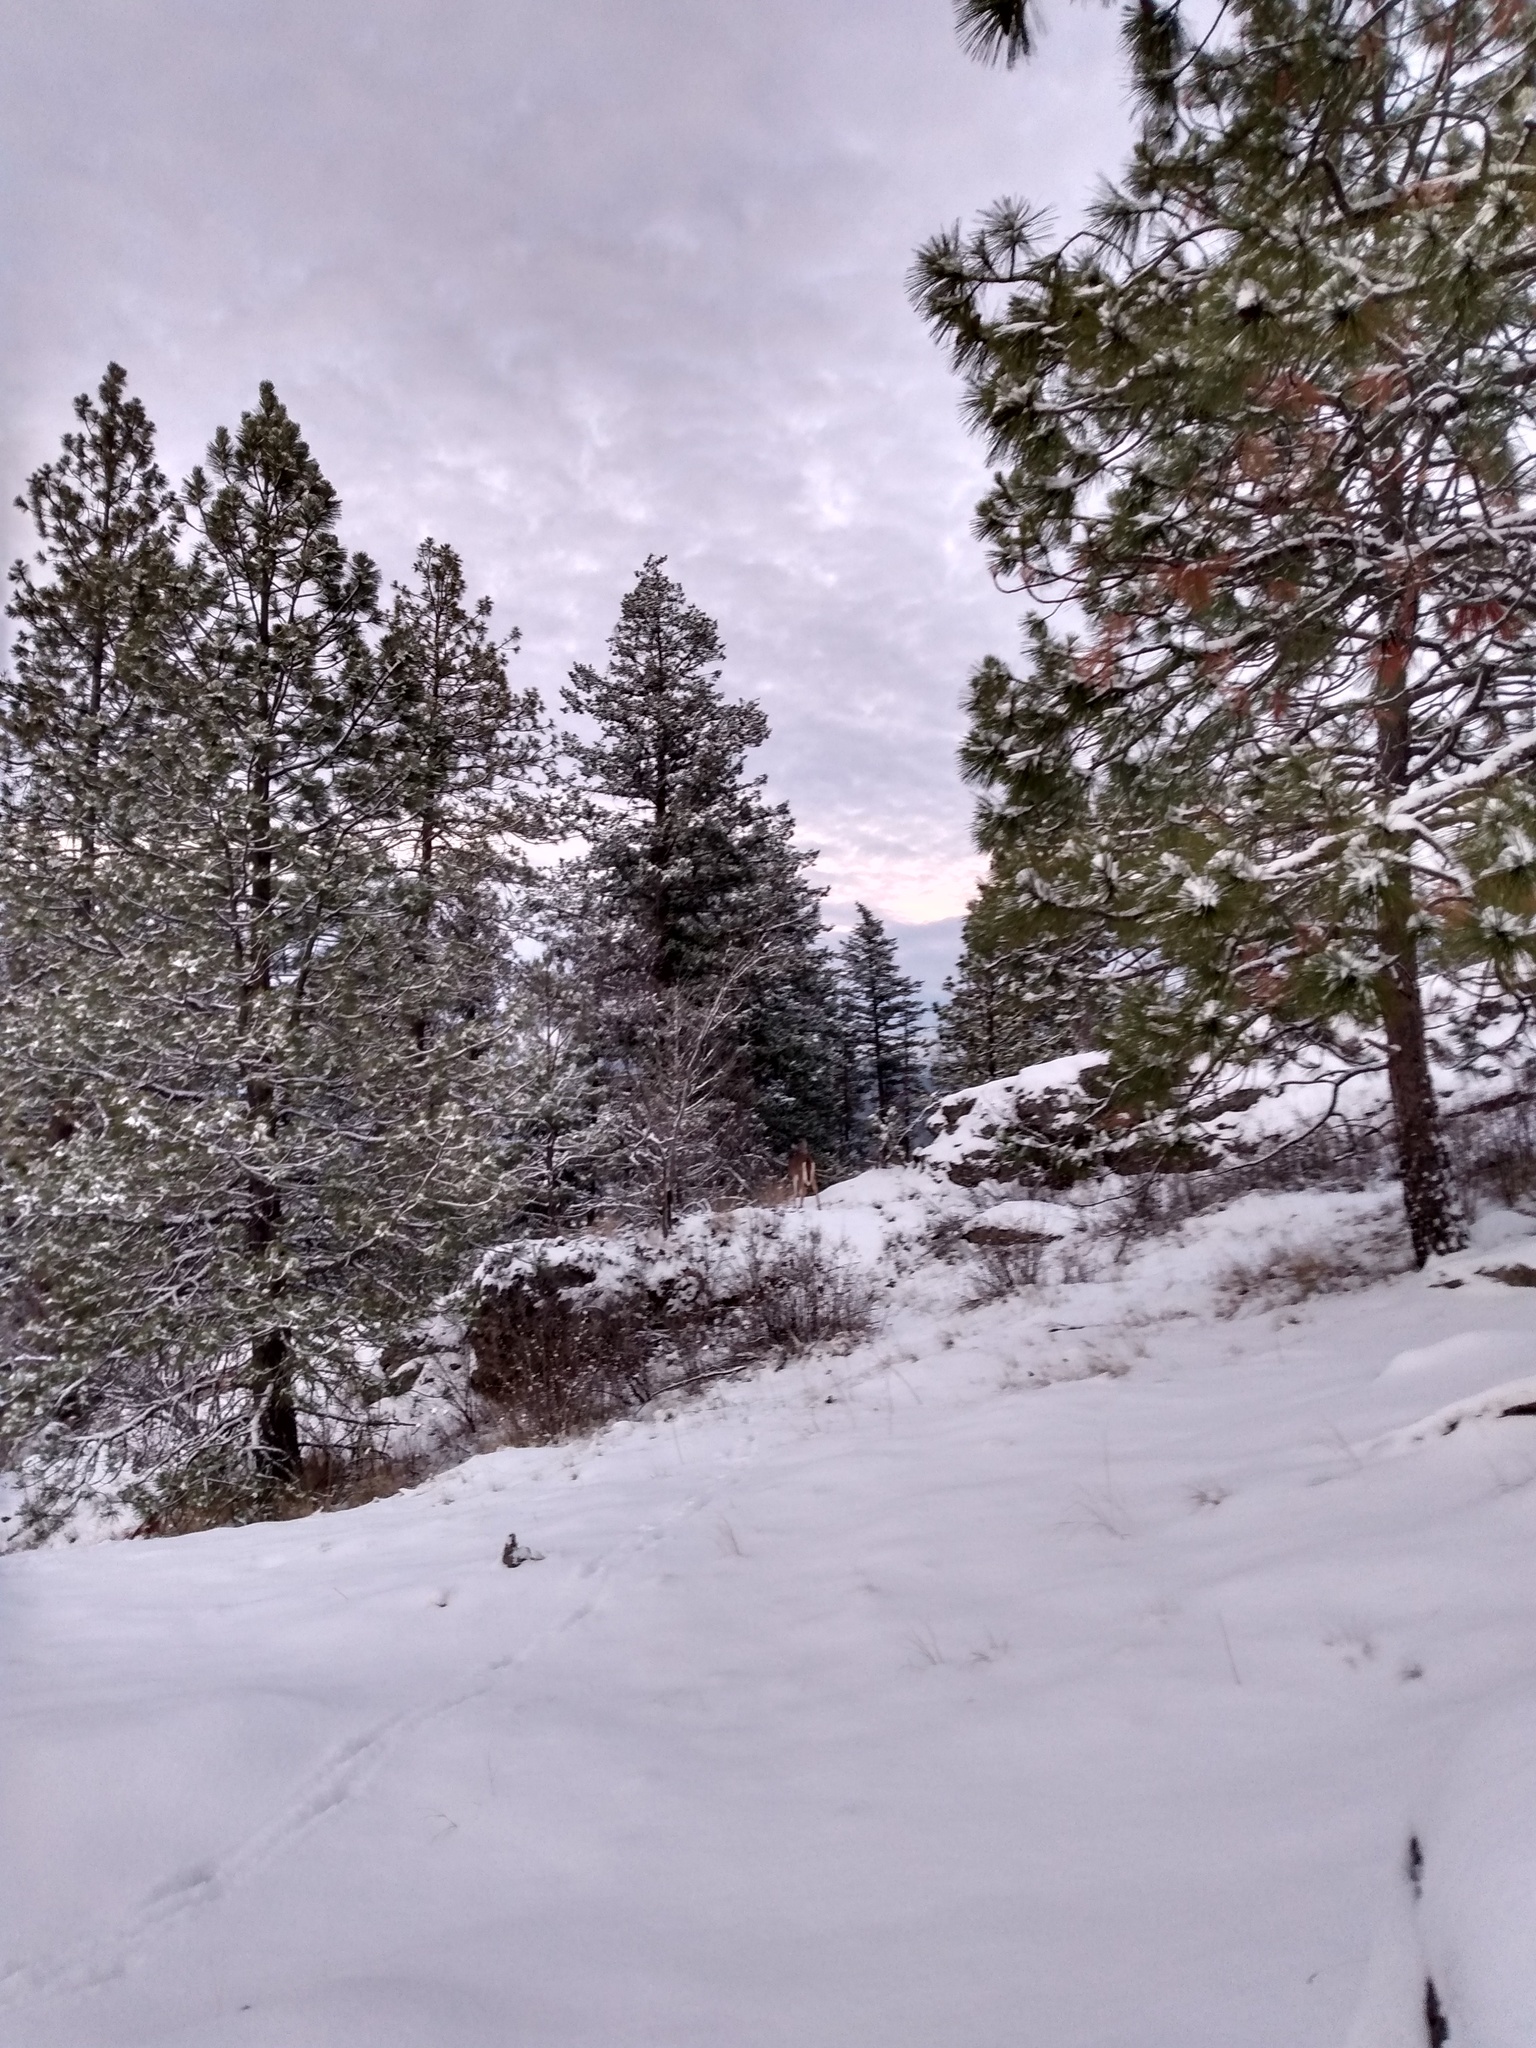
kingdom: Animalia
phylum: Chordata
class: Mammalia
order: Artiodactyla
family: Cervidae
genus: Odocoileus
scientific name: Odocoileus virginianus
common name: White-tailed deer
